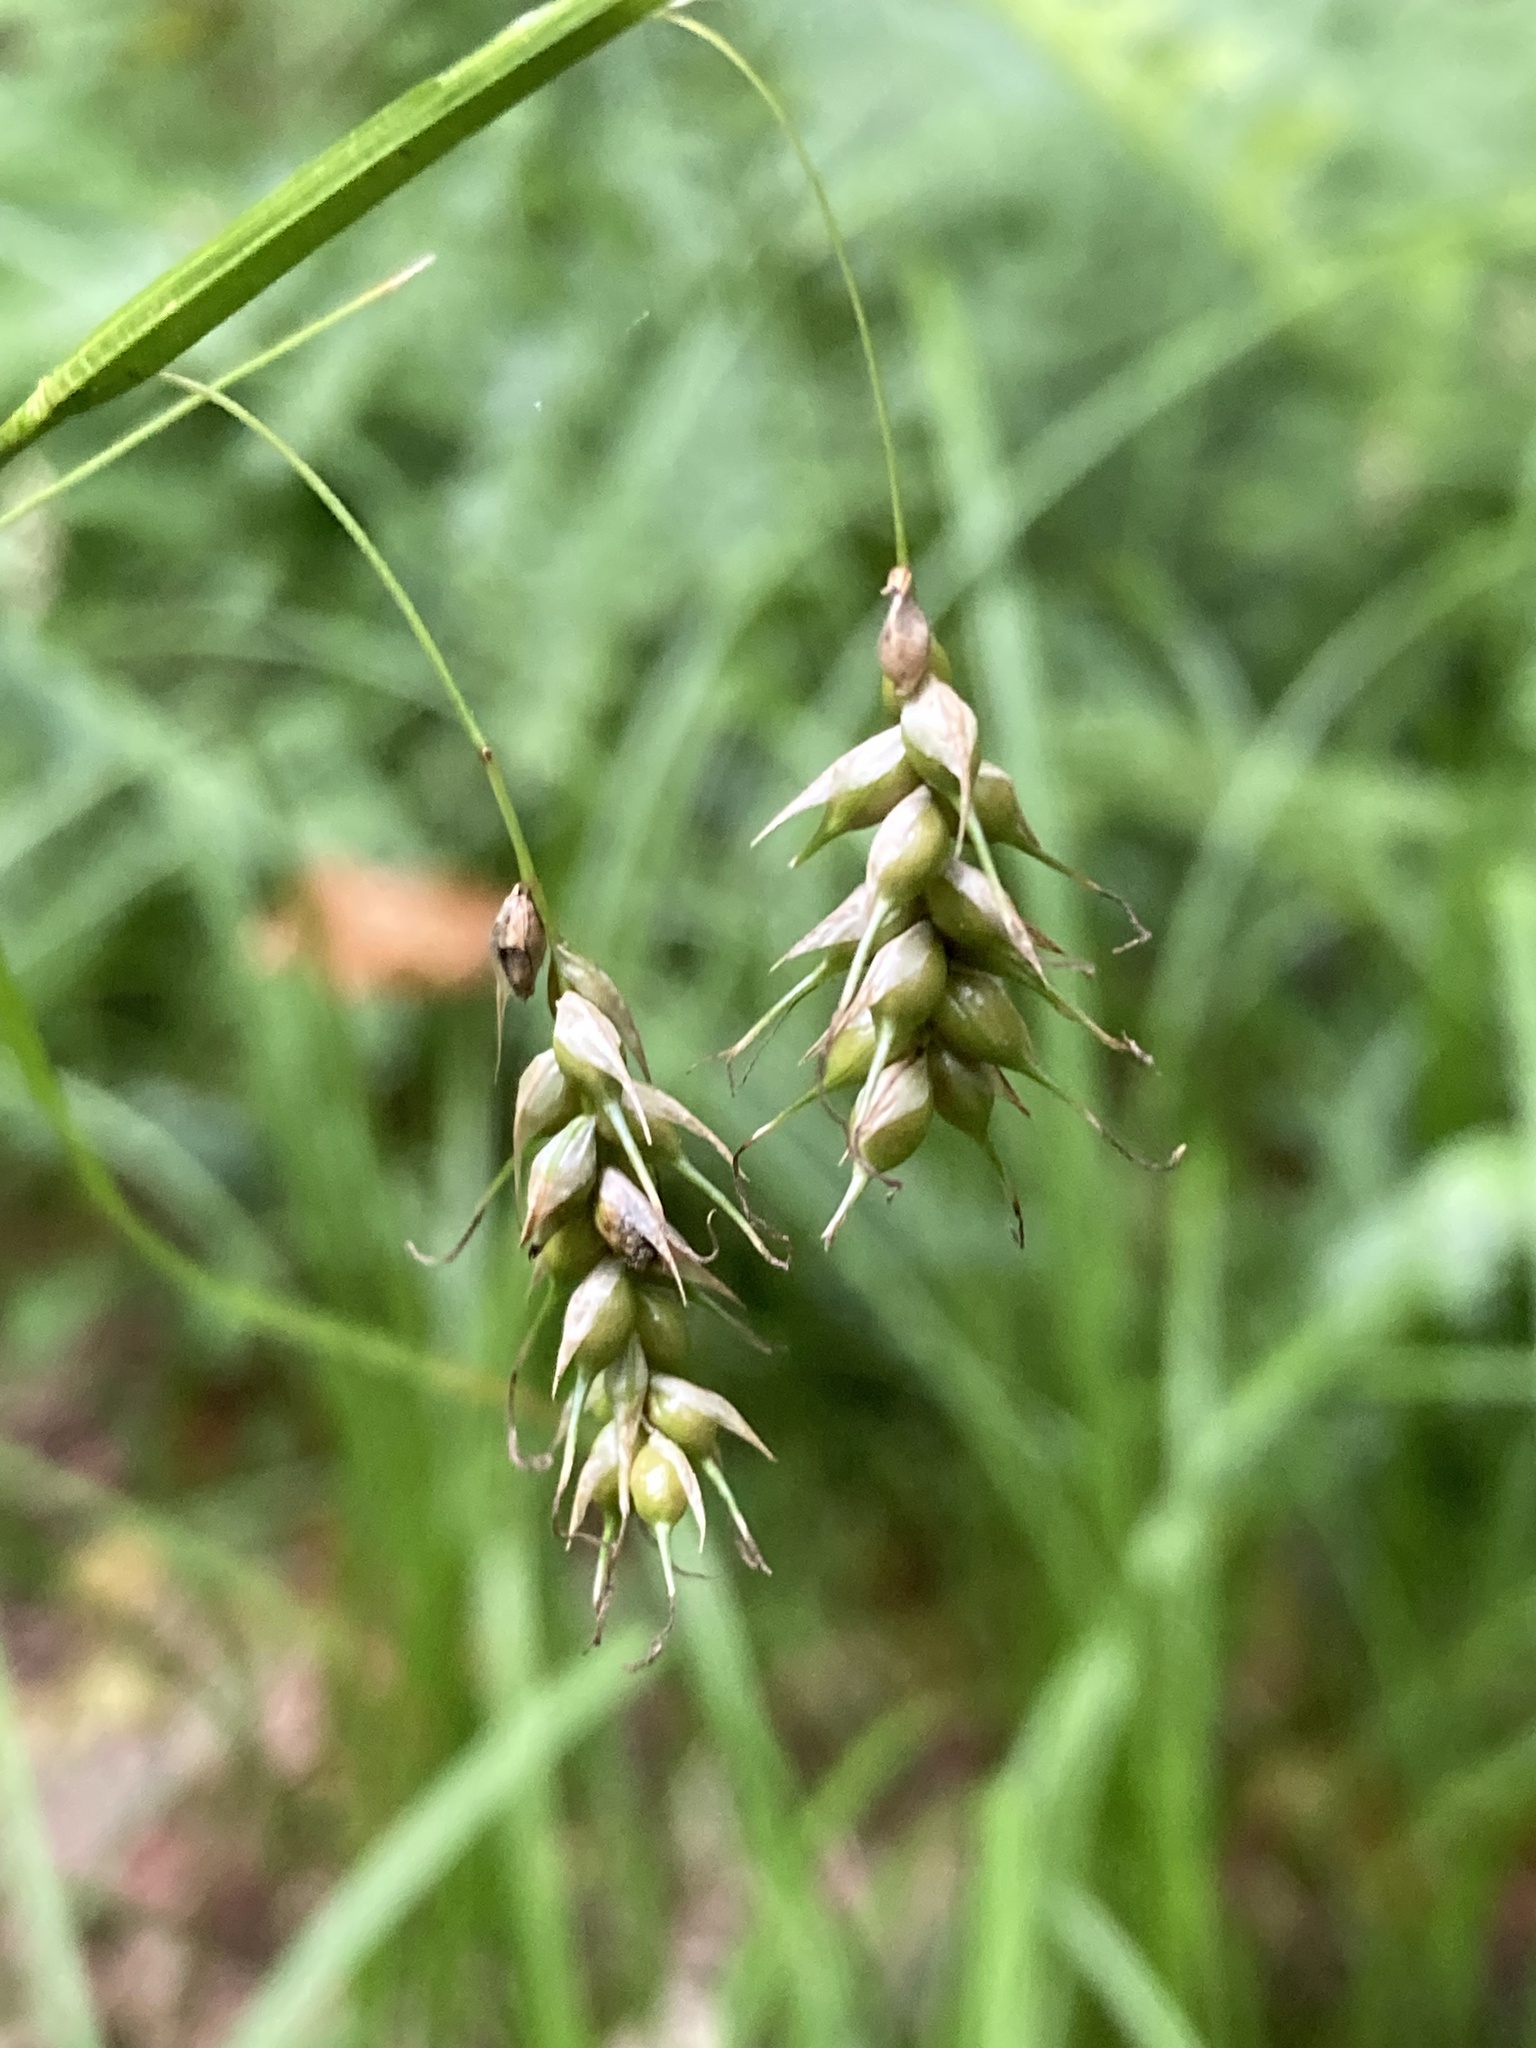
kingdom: Plantae
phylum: Tracheophyta
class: Liliopsida
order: Poales
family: Cyperaceae
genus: Carex
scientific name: Carex sprengelii
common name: Long-beaked sedge
